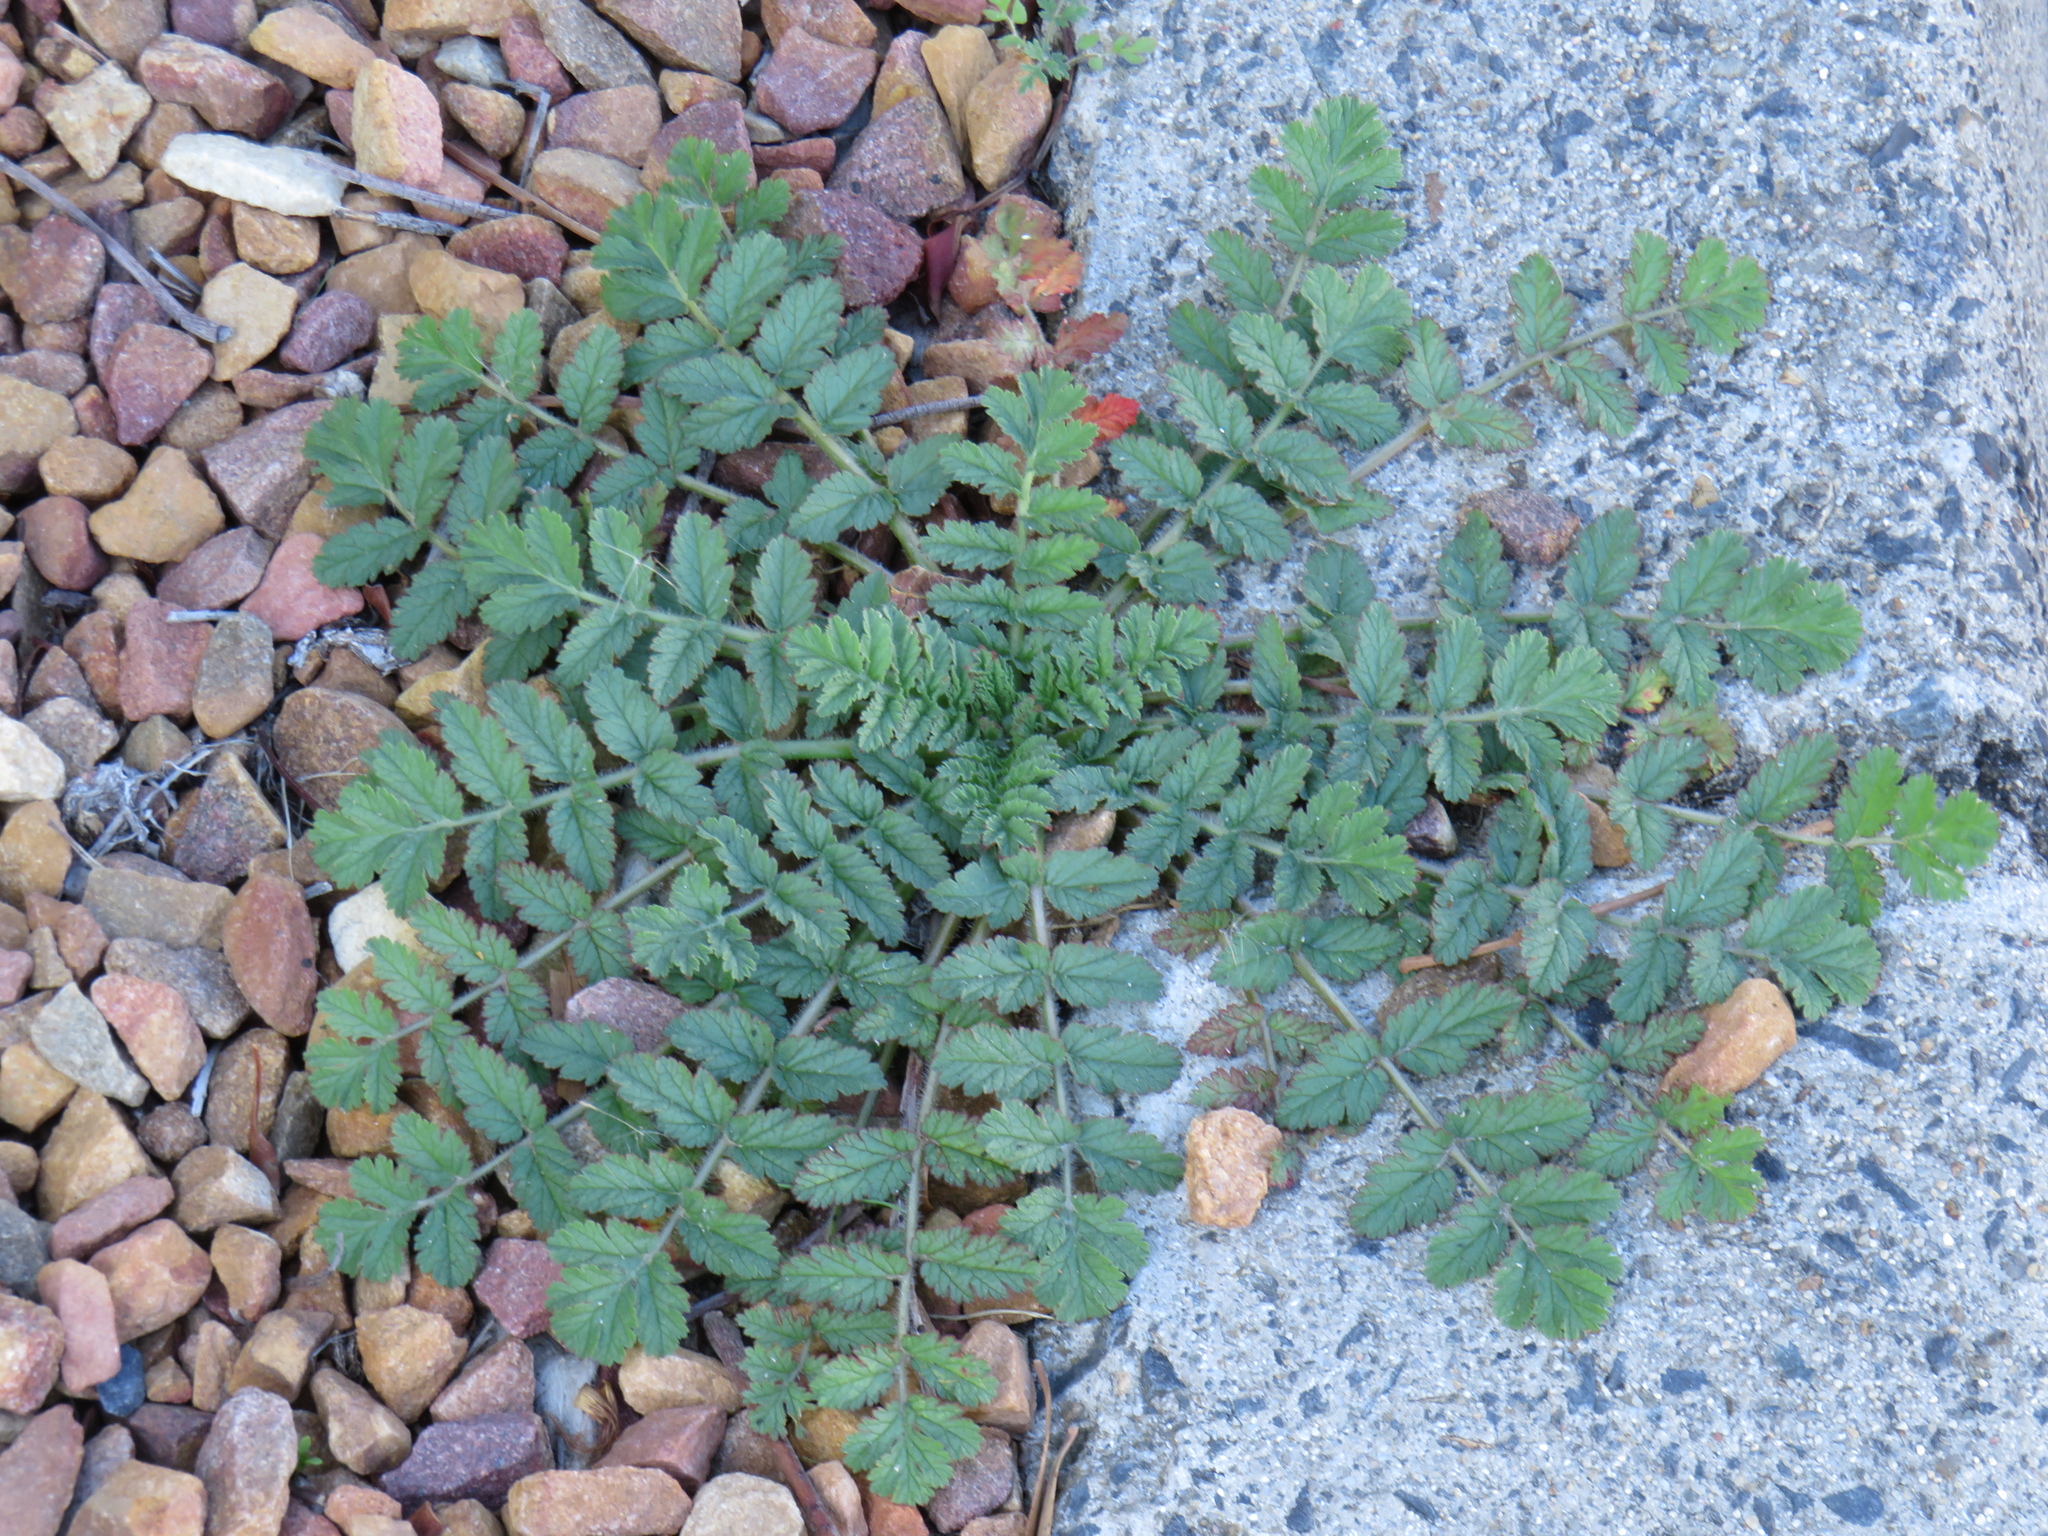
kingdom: Plantae
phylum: Tracheophyta
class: Magnoliopsida
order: Geraniales
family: Geraniaceae
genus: Erodium
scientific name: Erodium moschatum
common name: Musk stork's-bill
